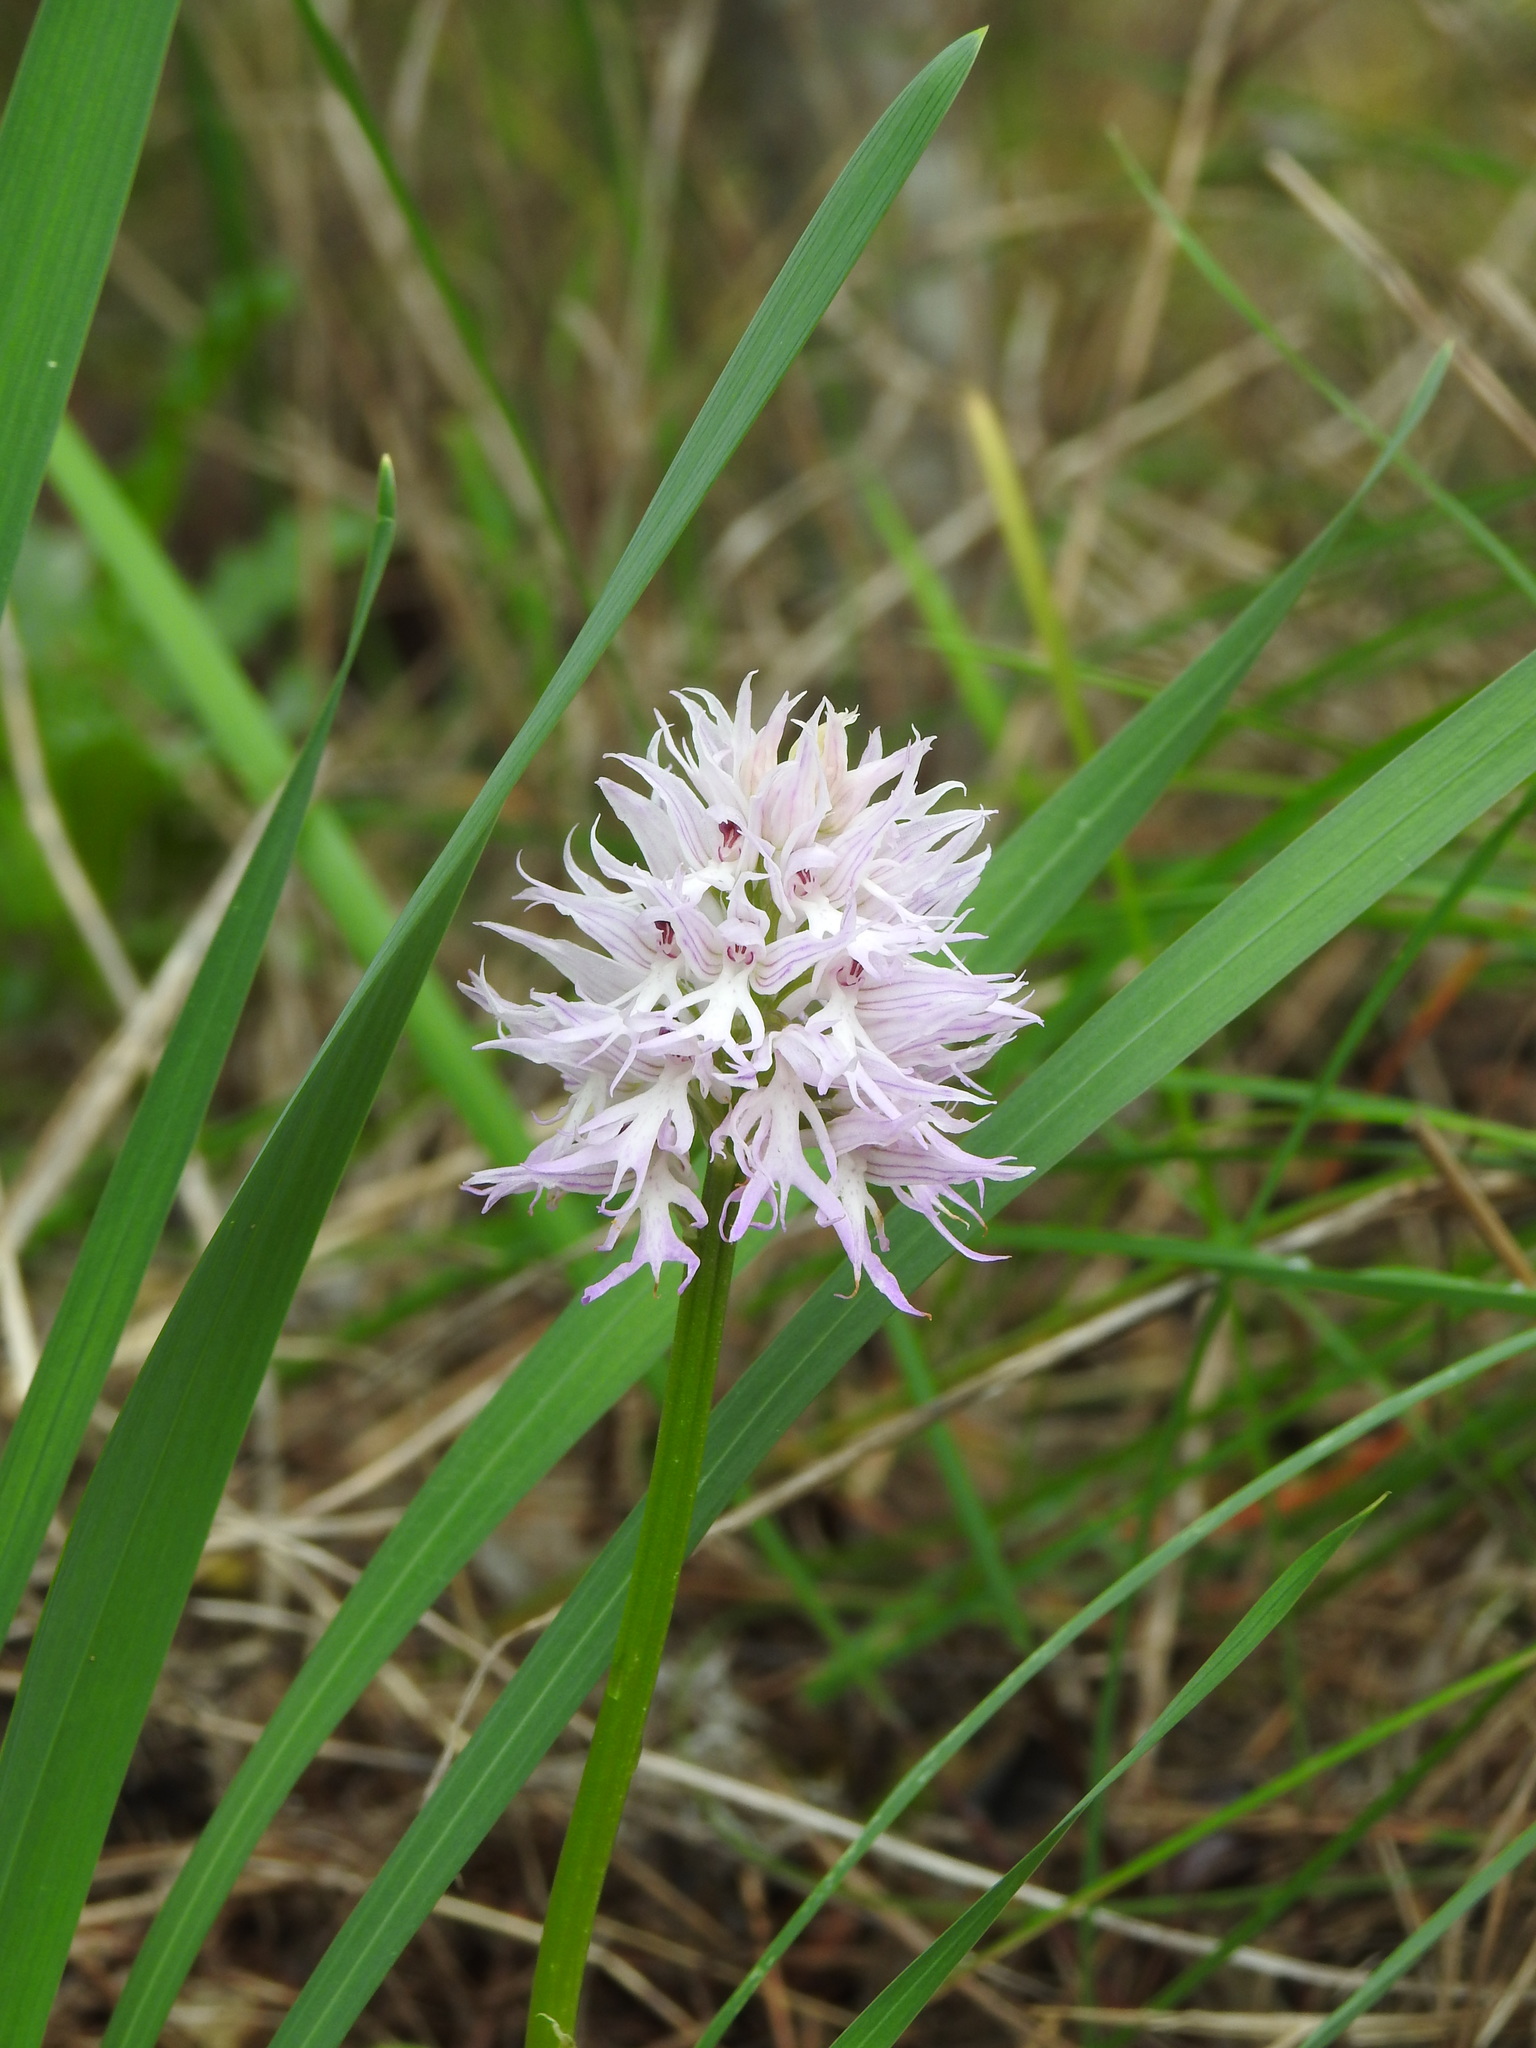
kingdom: Plantae
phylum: Tracheophyta
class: Liliopsida
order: Asparagales
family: Orchidaceae
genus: Orchis
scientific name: Orchis italica
